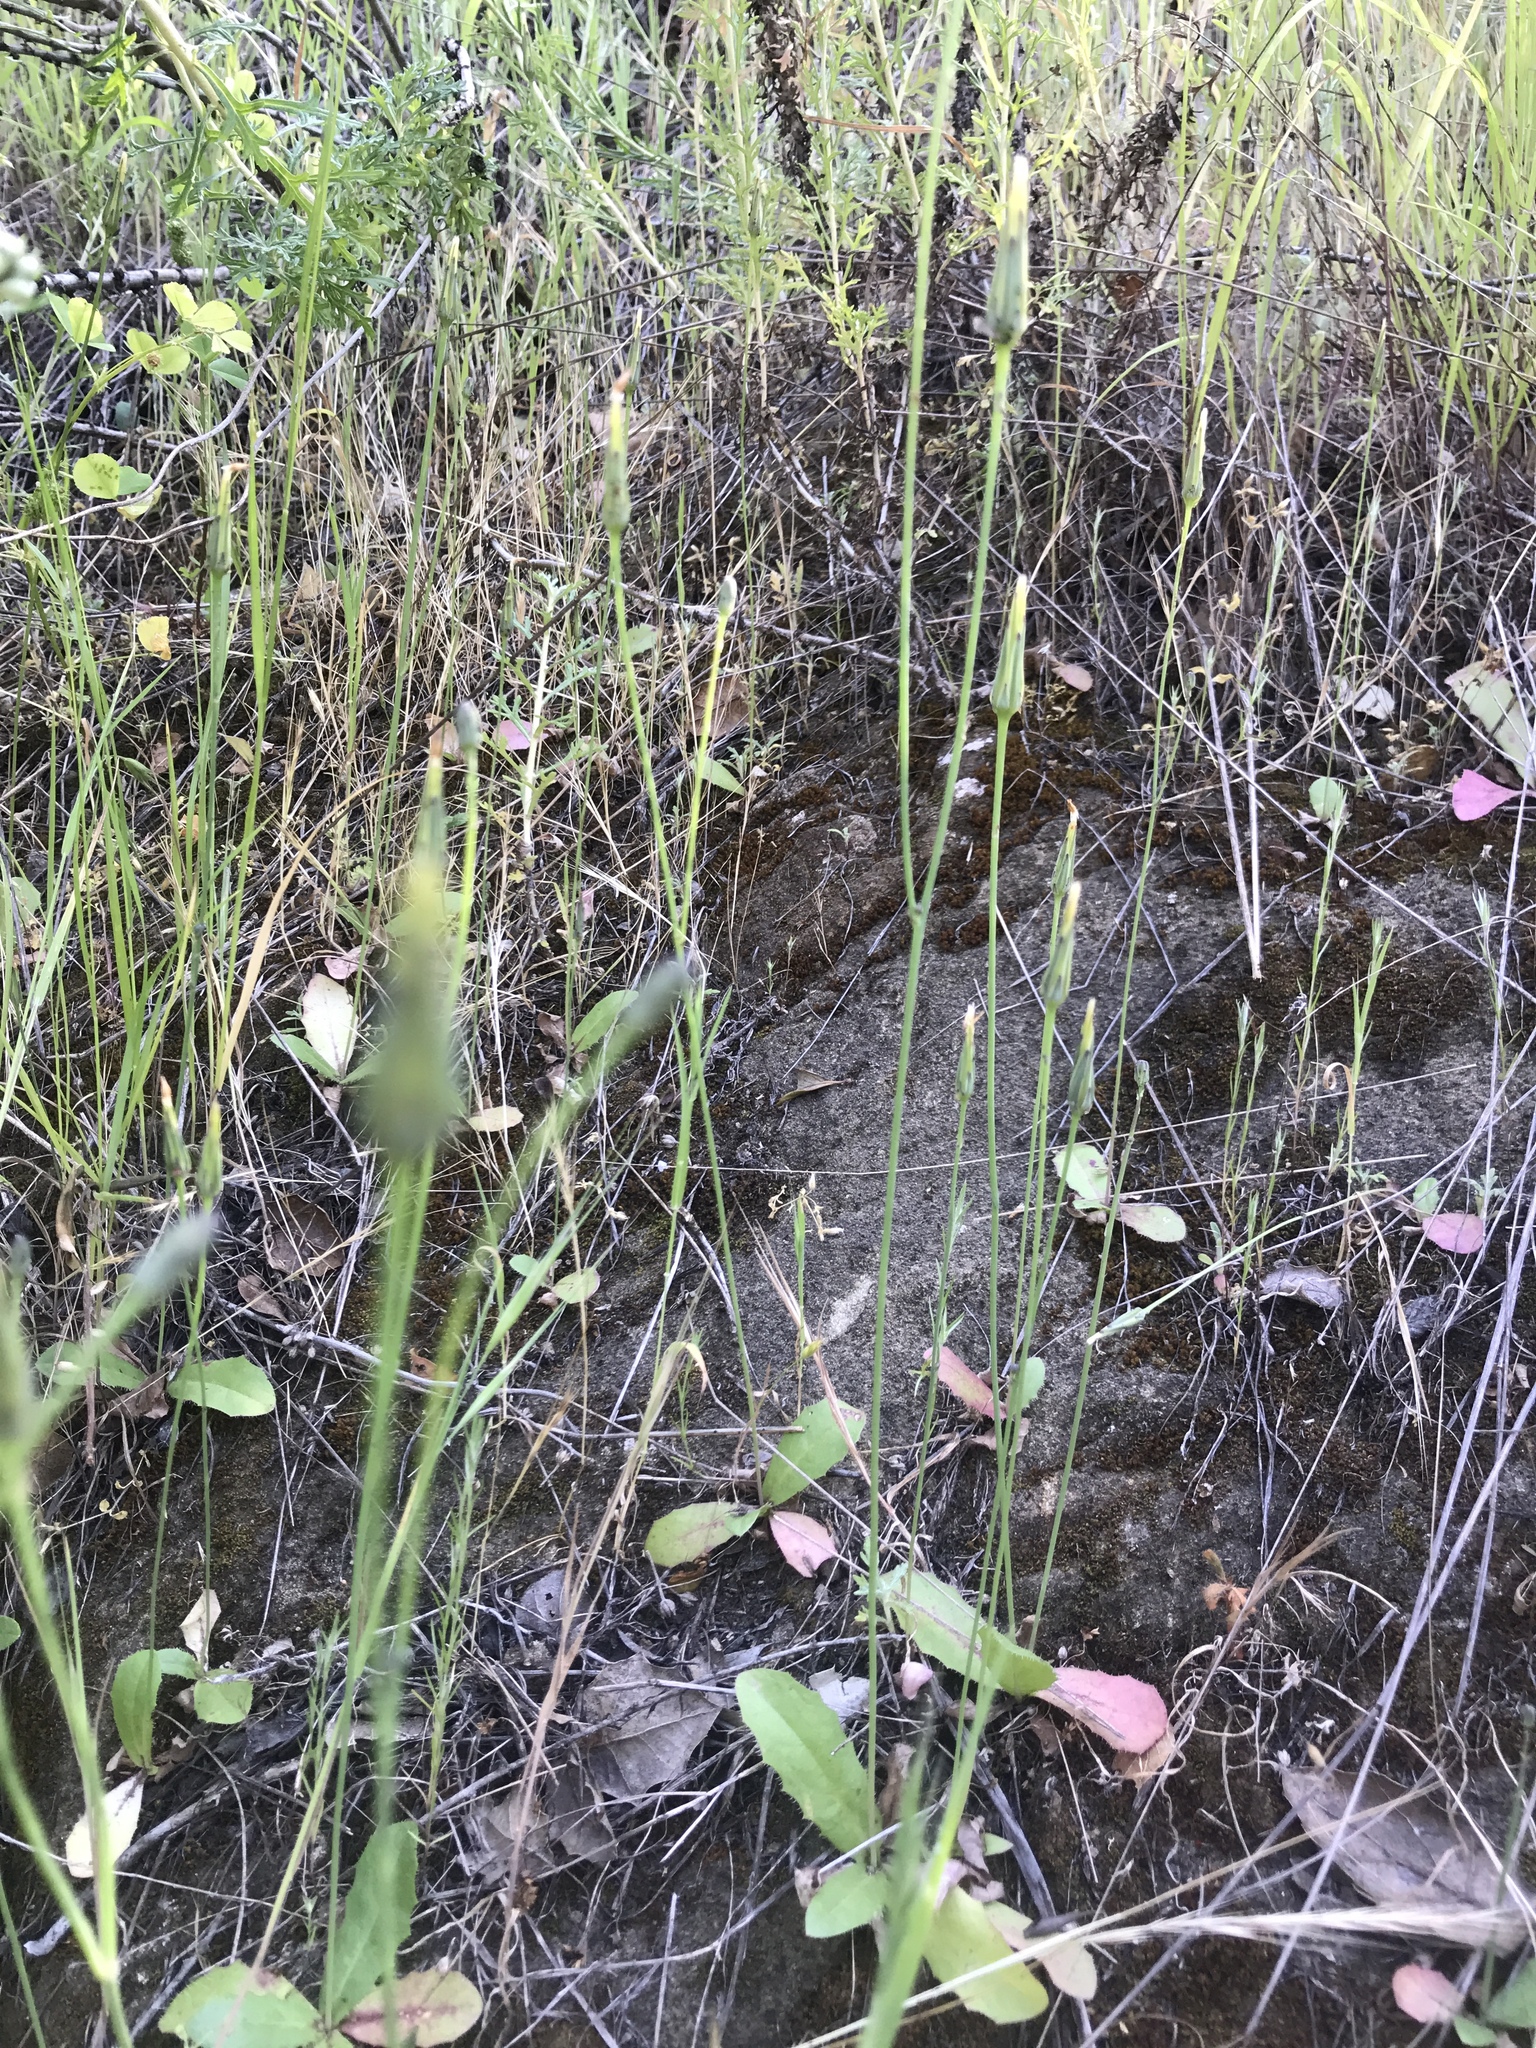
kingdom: Plantae
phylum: Tracheophyta
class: Magnoliopsida
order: Asterales
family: Asteraceae
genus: Hypochaeris
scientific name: Hypochaeris glabra
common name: Smooth catsear
